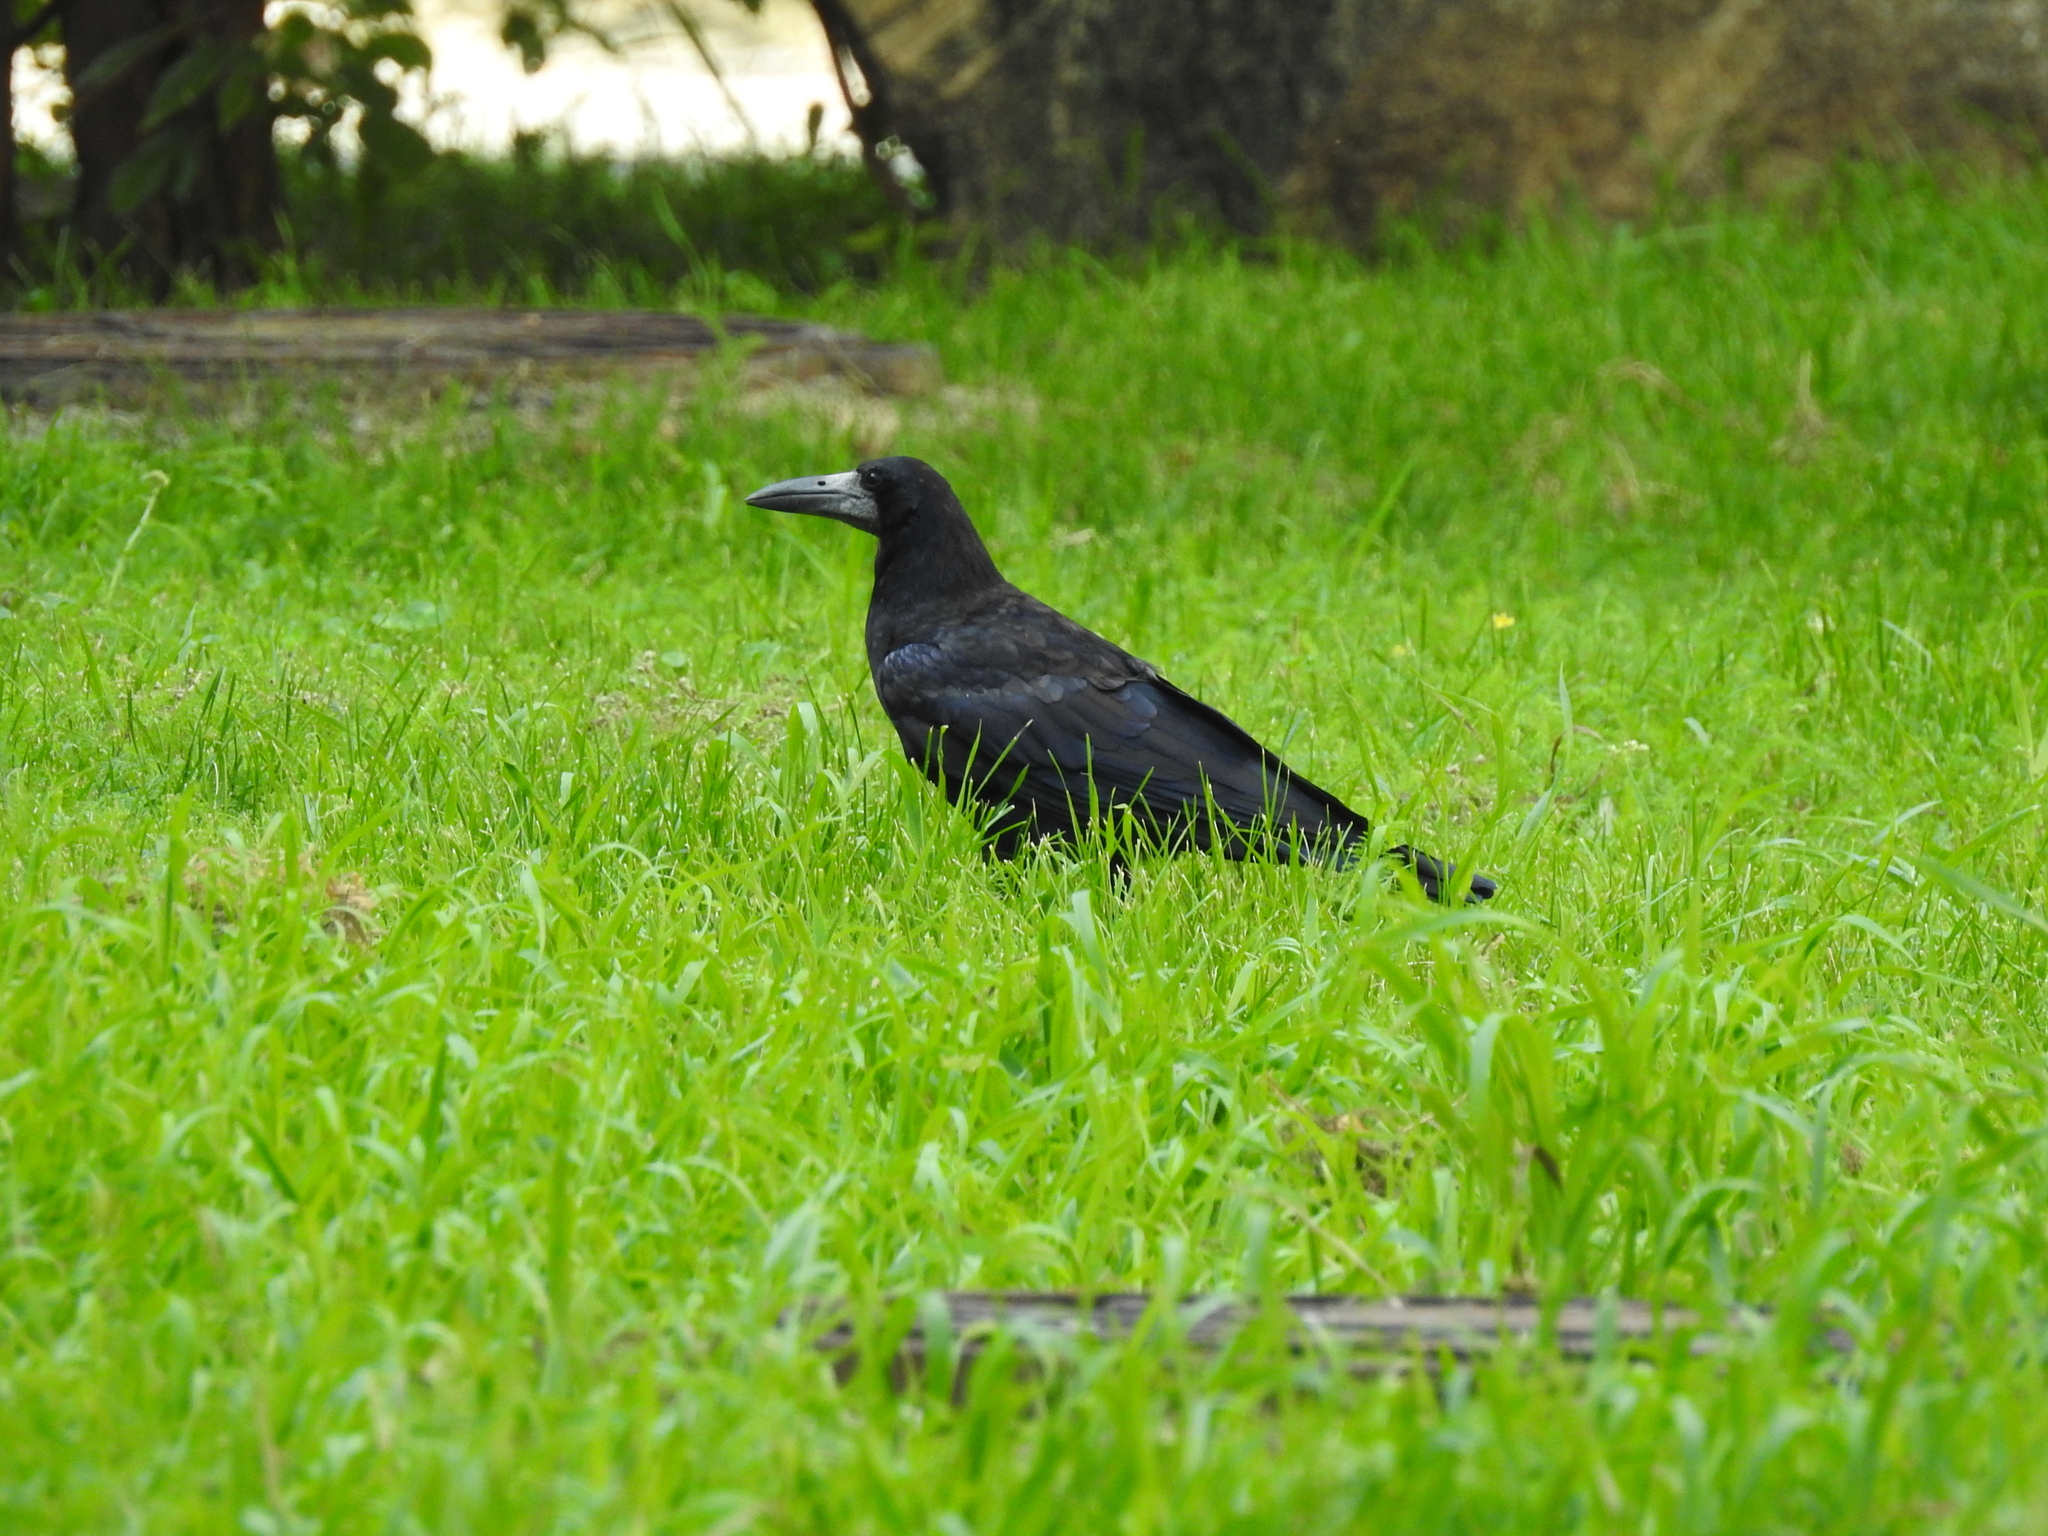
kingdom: Animalia
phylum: Chordata
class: Aves
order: Passeriformes
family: Corvidae
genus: Corvus
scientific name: Corvus frugilegus
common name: Rook
